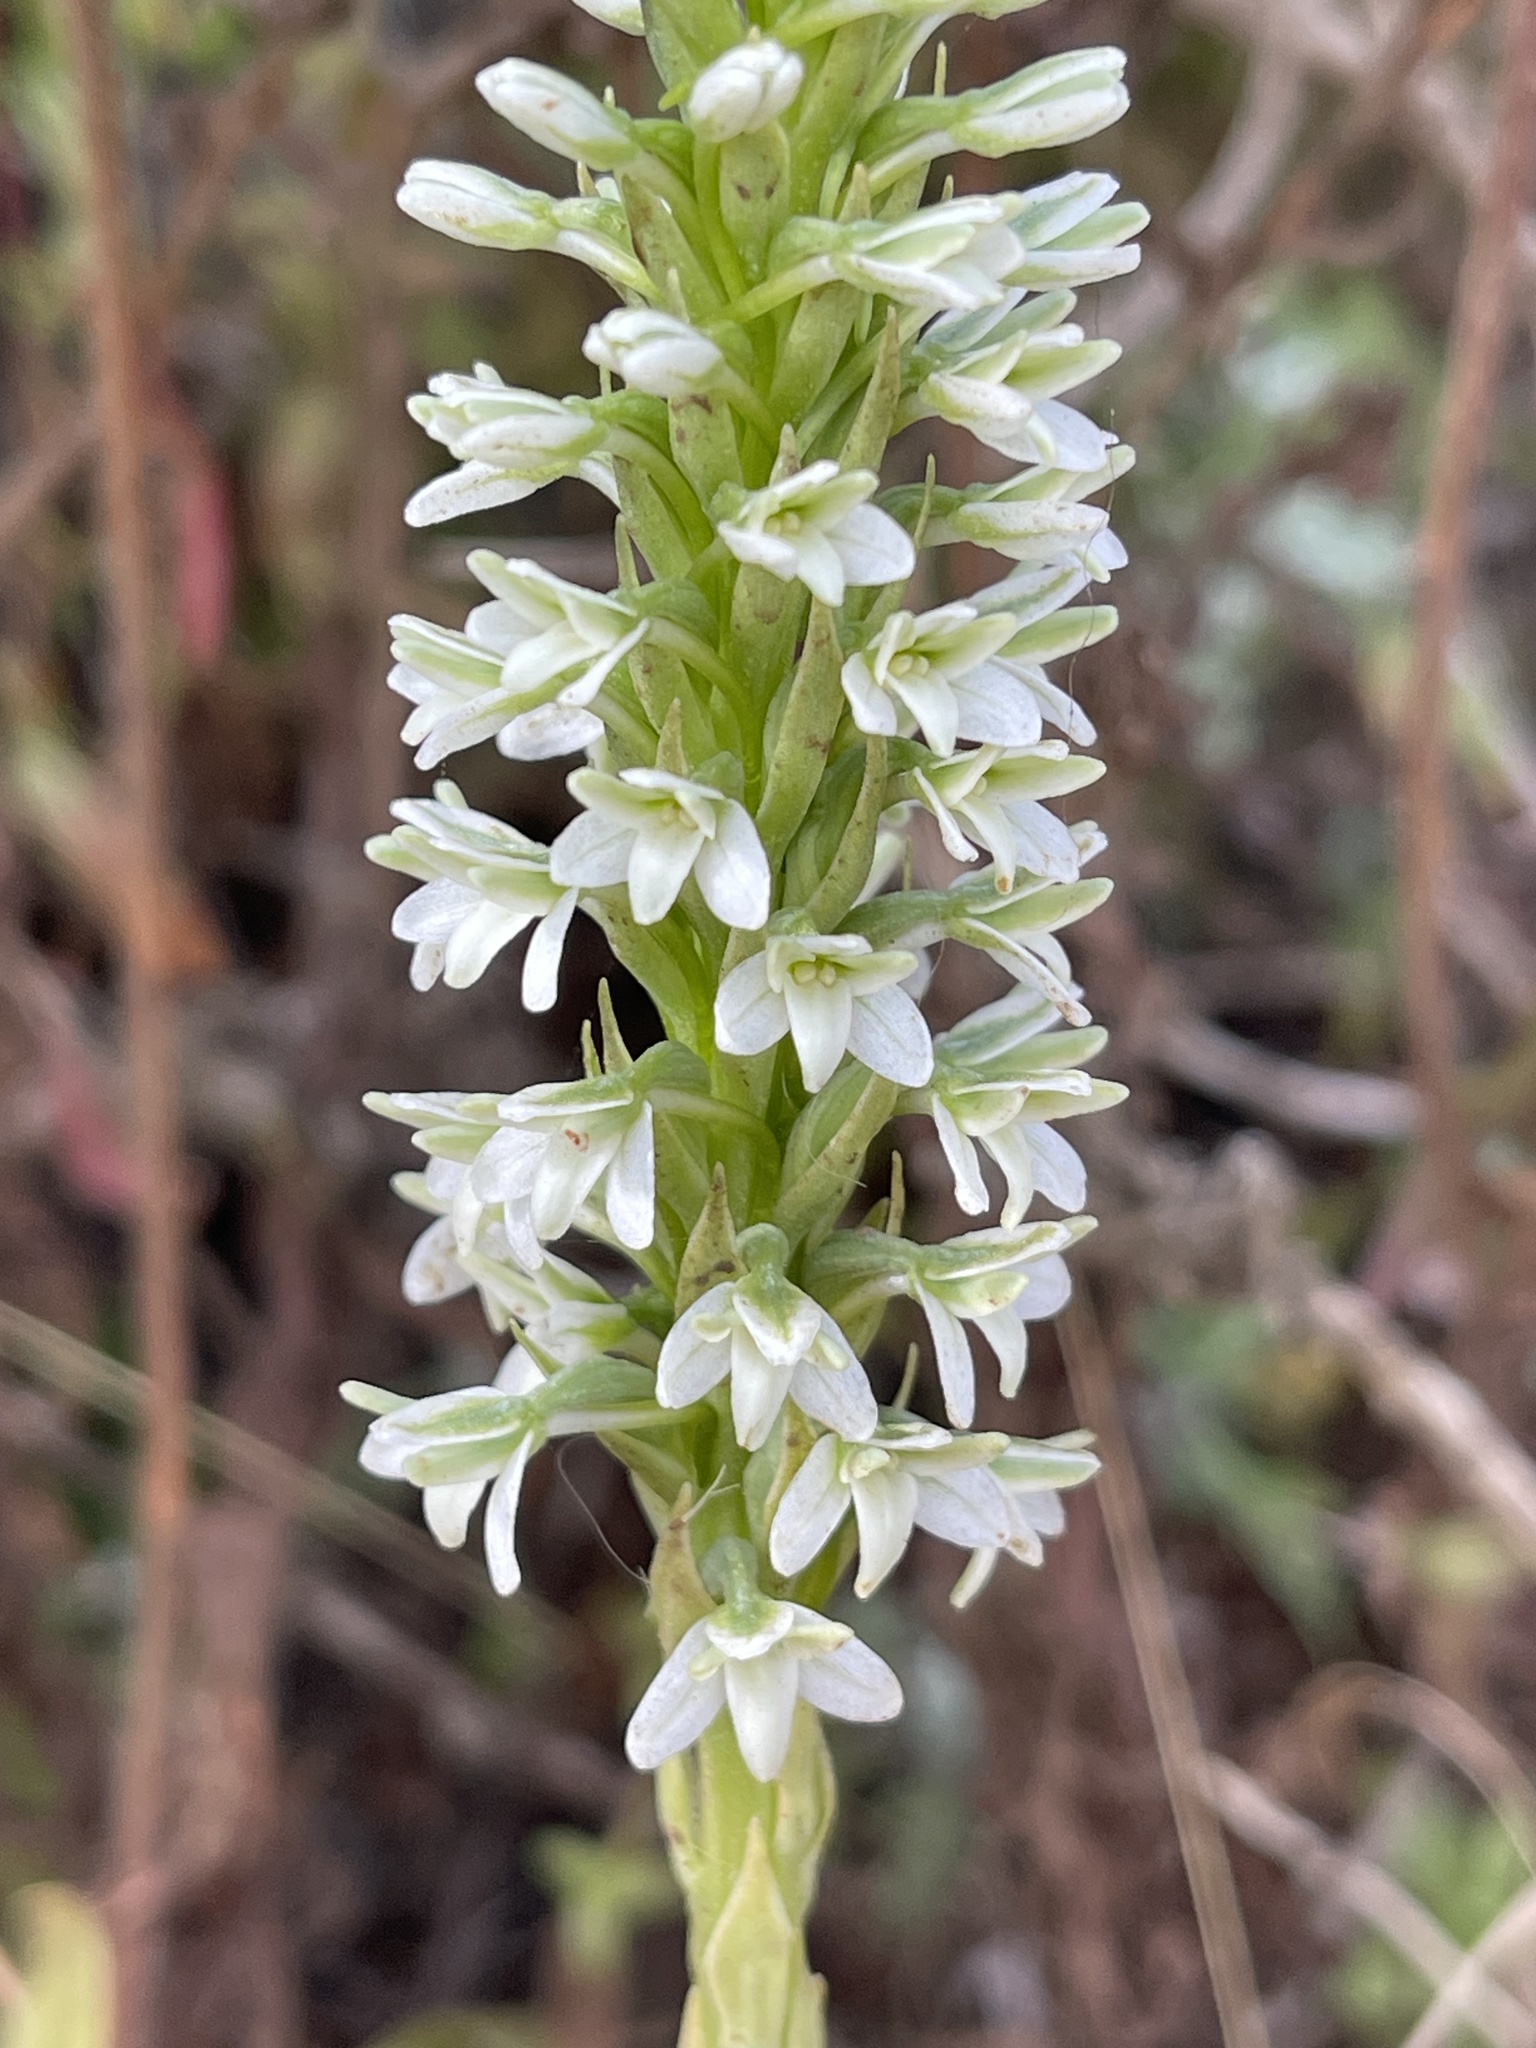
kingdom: Plantae
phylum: Tracheophyta
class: Liliopsida
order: Asparagales
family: Orchidaceae
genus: Platanthera
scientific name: Platanthera elegans
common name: Coast piperia
